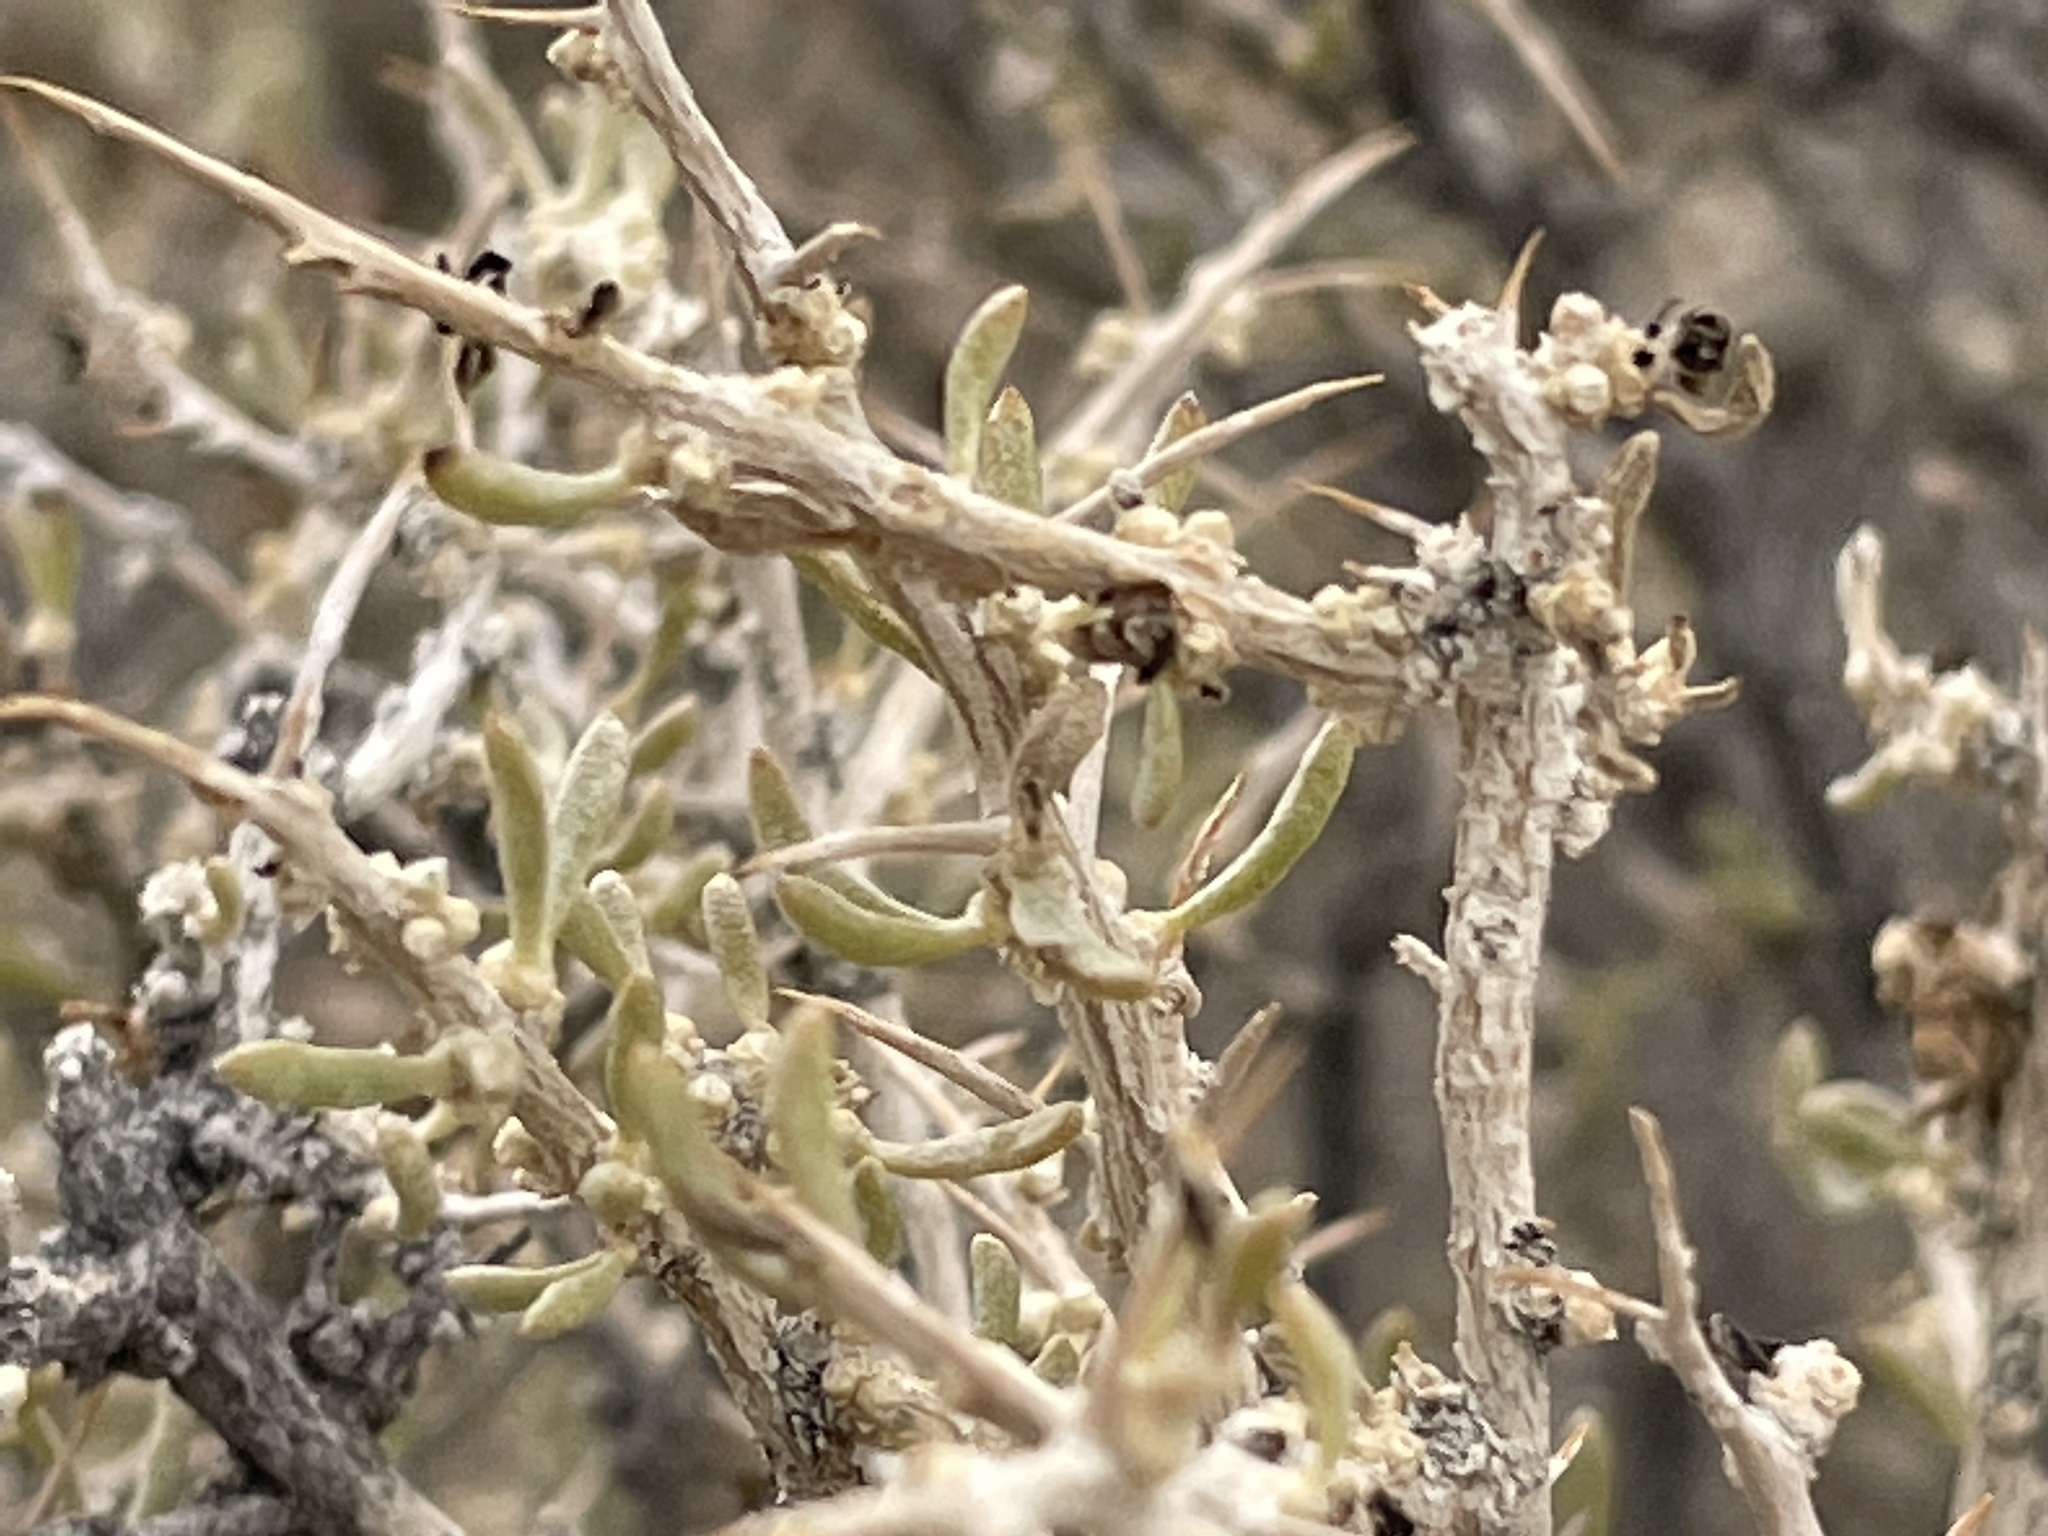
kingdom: Plantae
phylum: Tracheophyta
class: Magnoliopsida
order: Caryophyllales
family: Sarcobataceae
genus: Sarcobatus
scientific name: Sarcobatus baileyi
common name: Bailey greasewood
